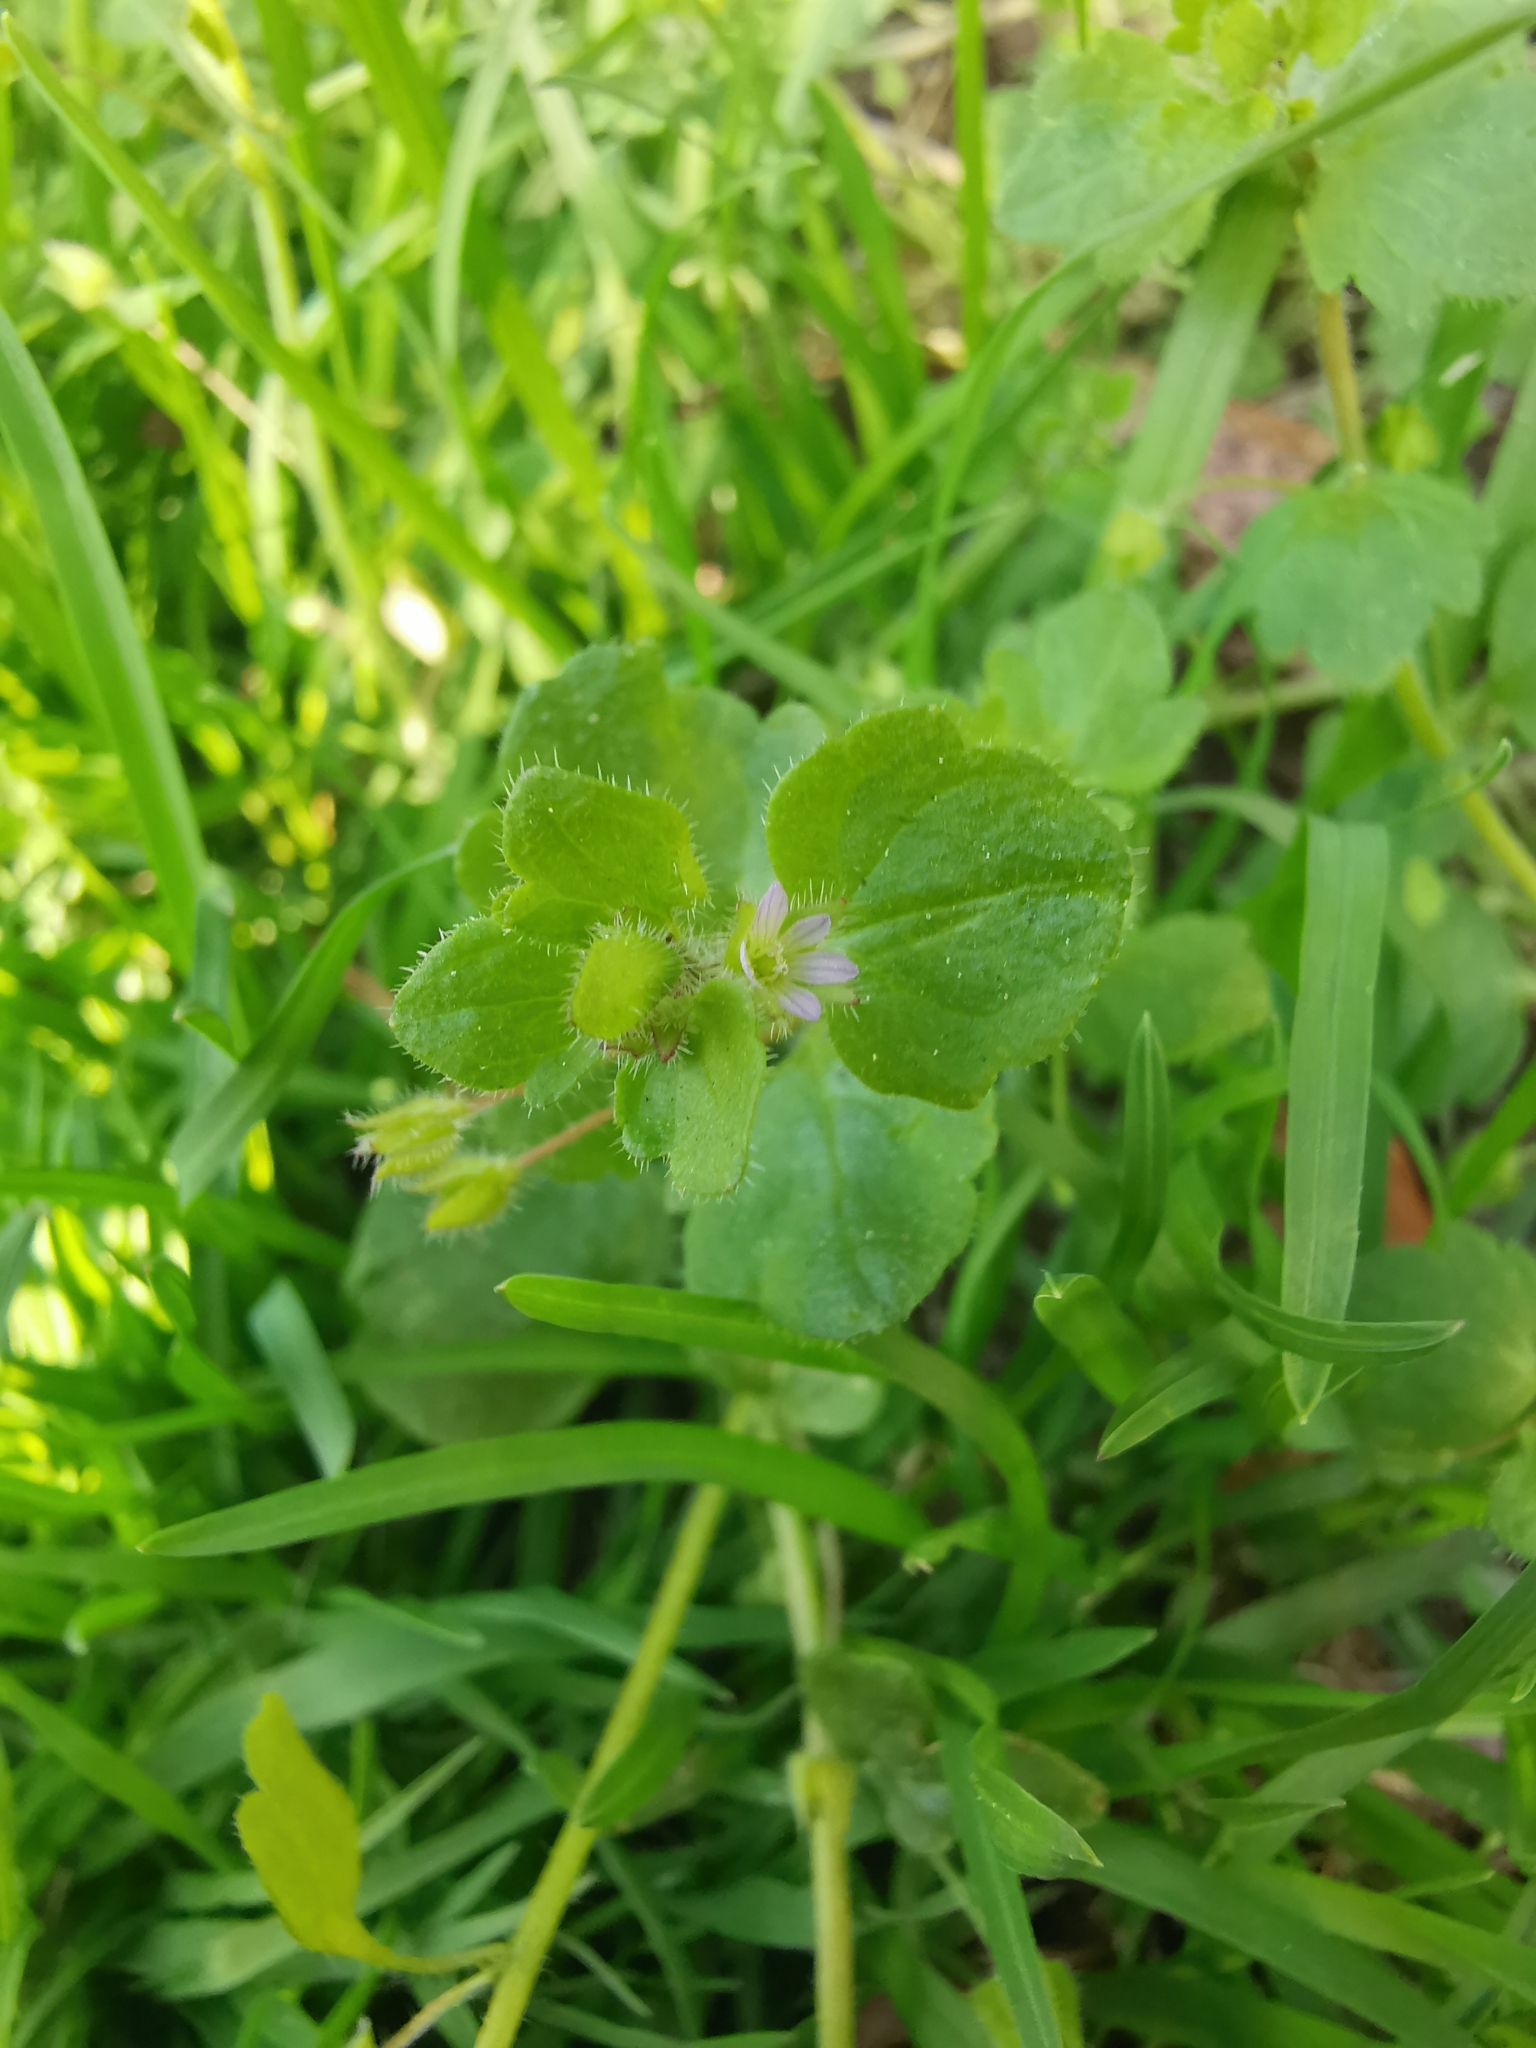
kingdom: Plantae
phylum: Tracheophyta
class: Magnoliopsida
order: Lamiales
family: Plantaginaceae
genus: Veronica
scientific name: Veronica sublobata
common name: False ivy-leaved speedwell
